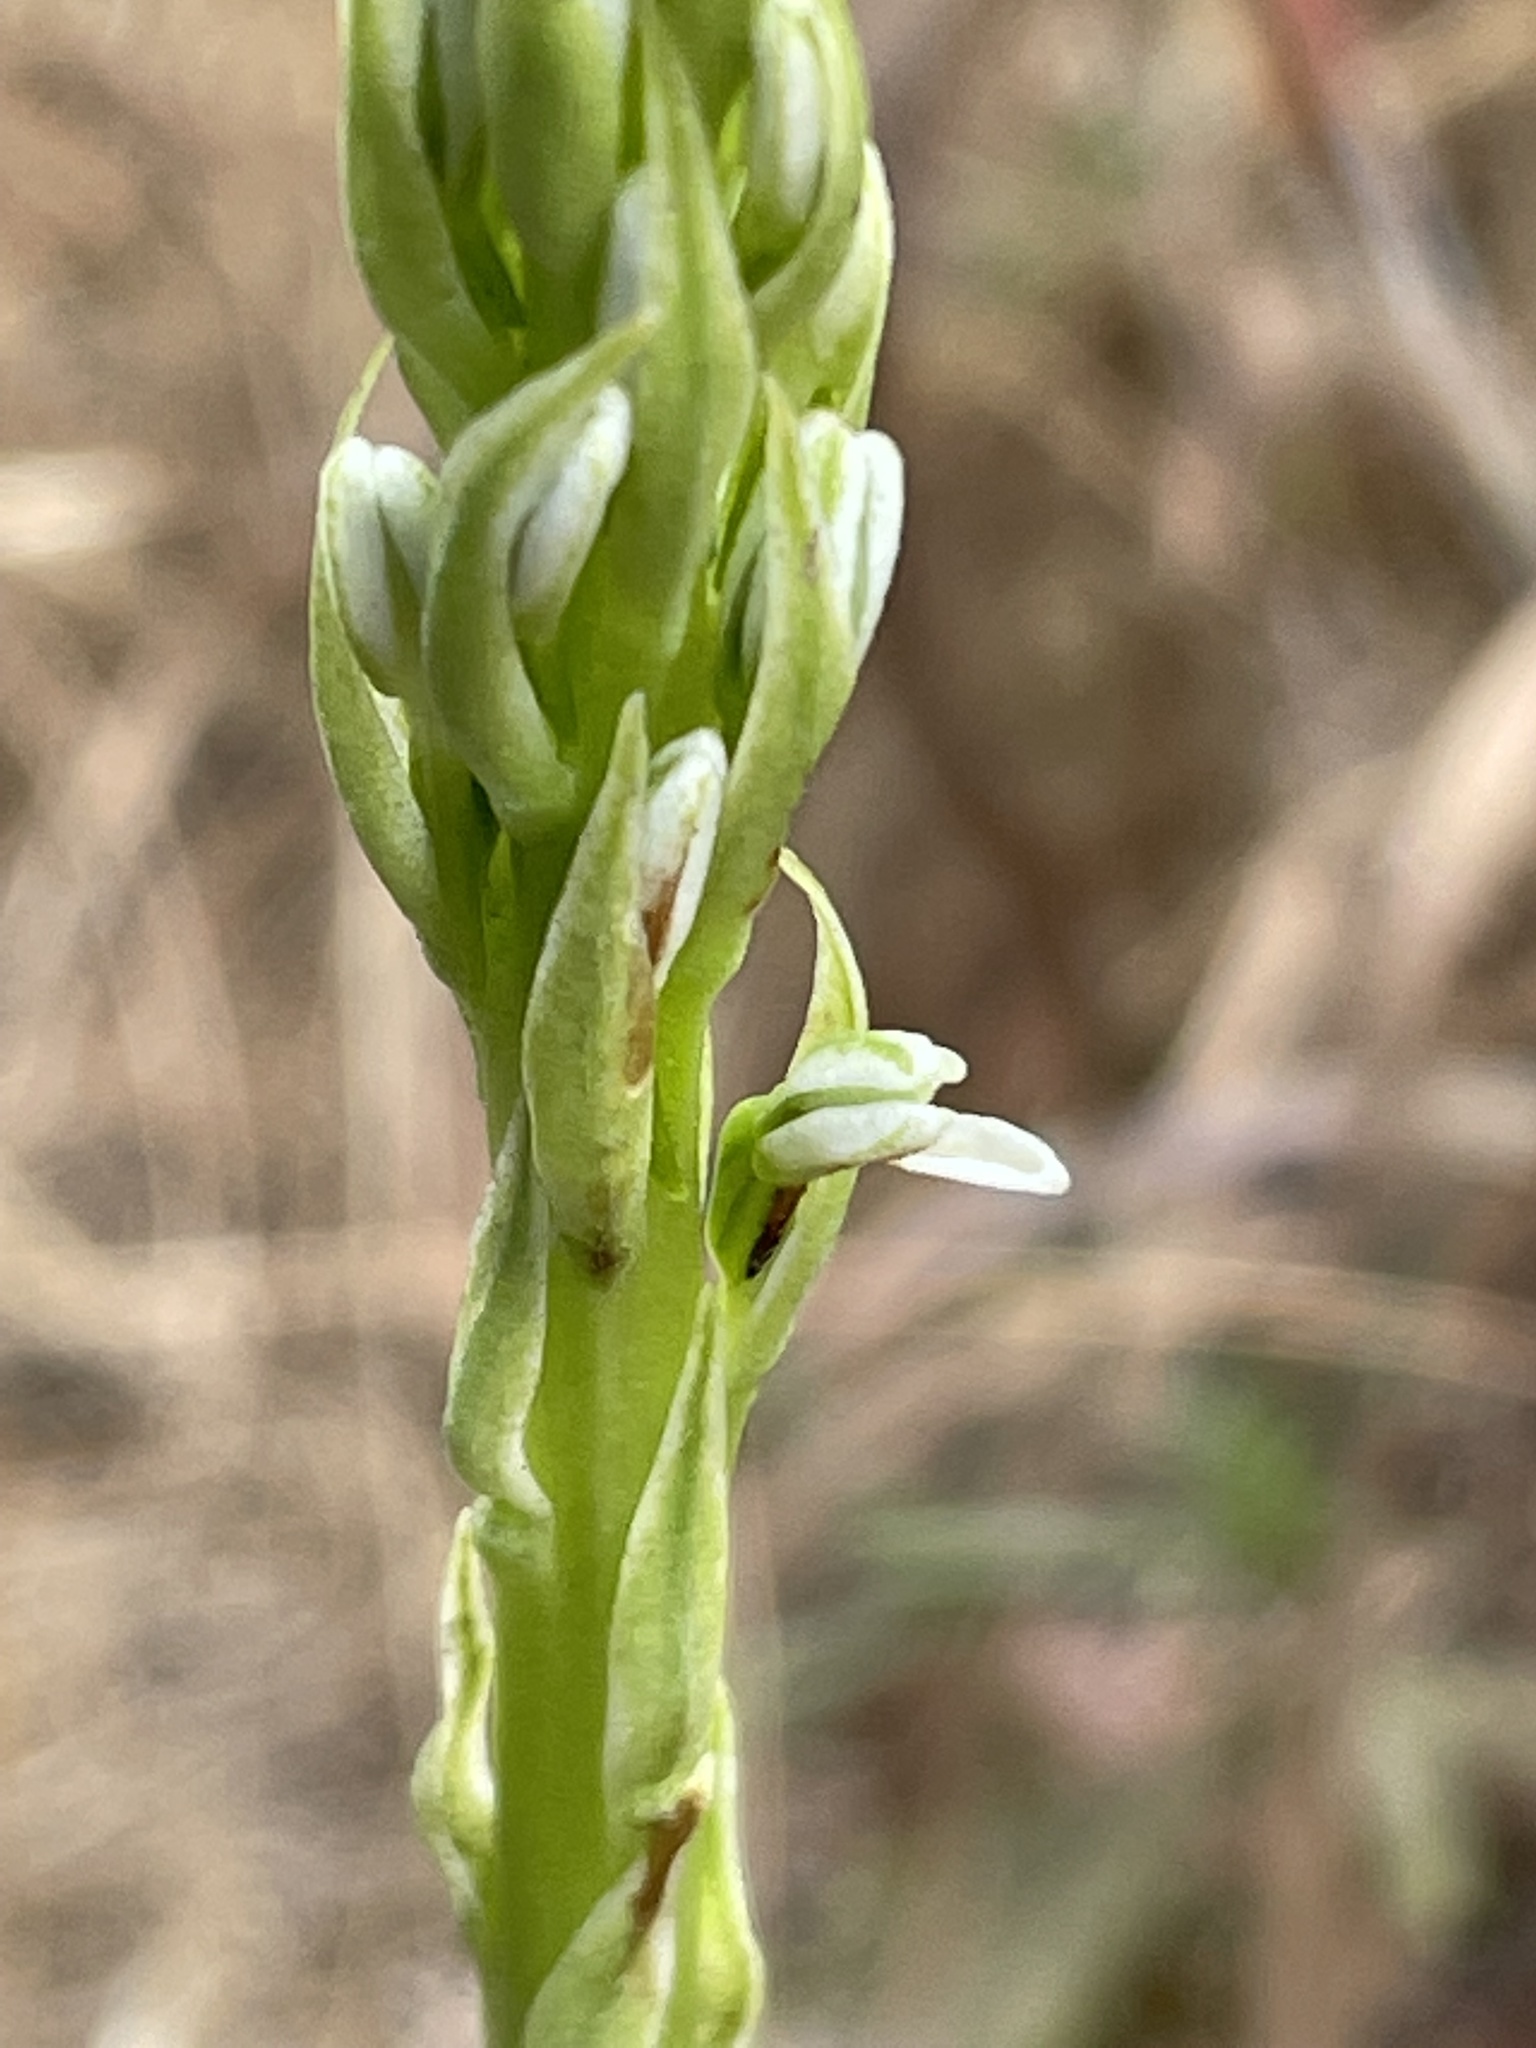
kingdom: Plantae
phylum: Tracheophyta
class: Liliopsida
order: Asparagales
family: Orchidaceae
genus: Platanthera
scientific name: Platanthera elegans
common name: Coast piperia
